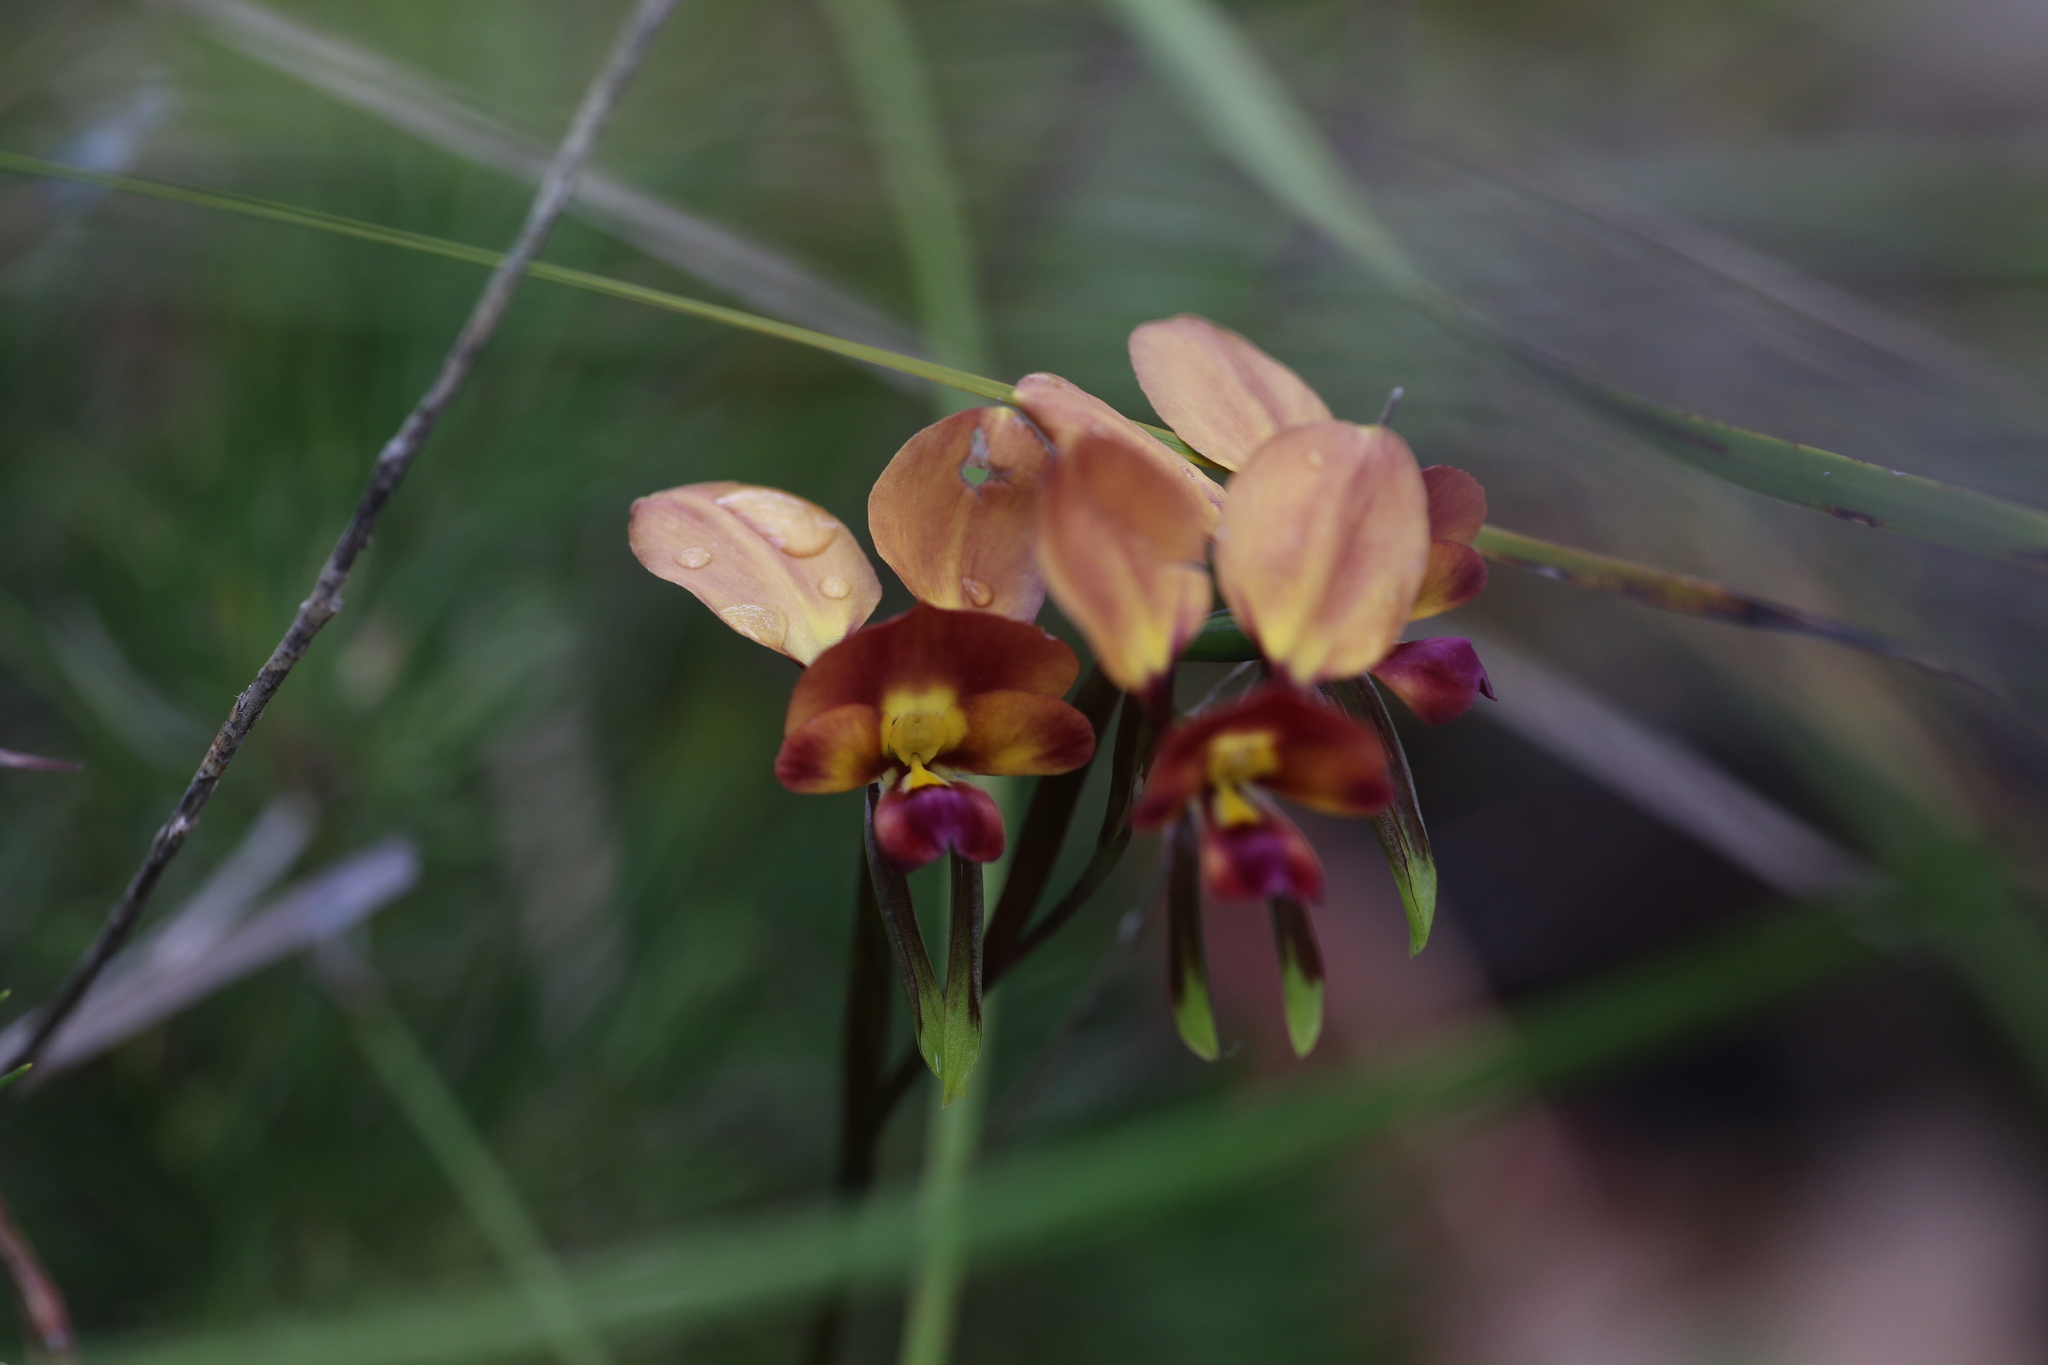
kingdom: Plantae
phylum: Tracheophyta
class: Liliopsida
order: Asparagales
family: Orchidaceae
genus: Diuris
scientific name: Diuris jonesii
